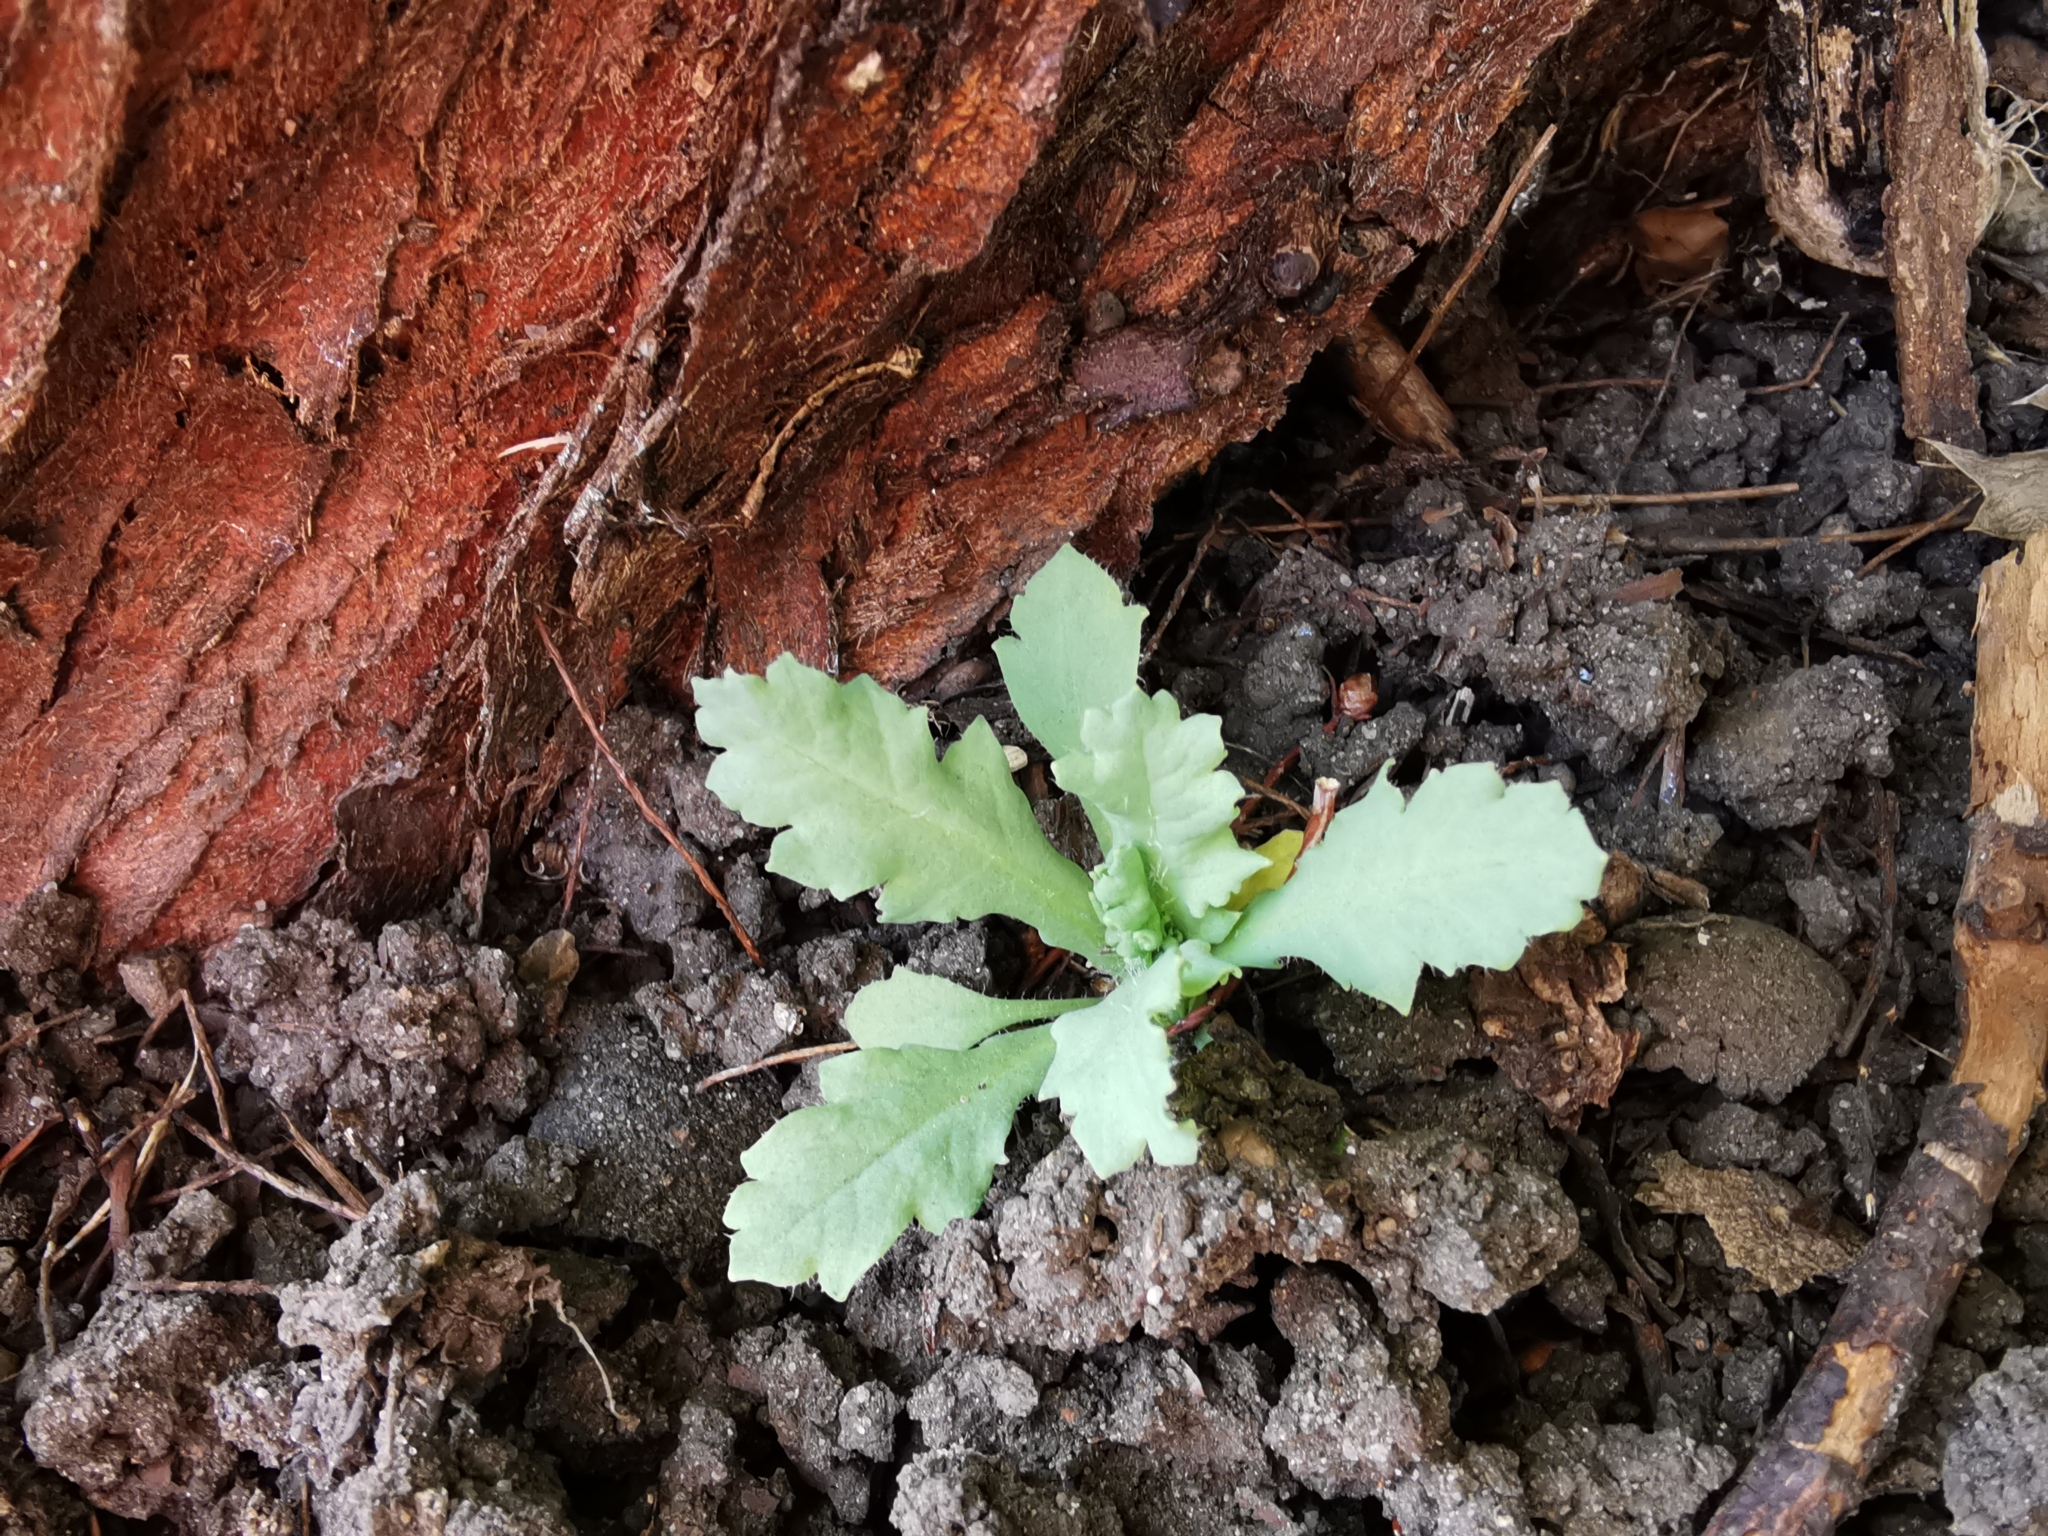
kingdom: Plantae
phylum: Tracheophyta
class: Magnoliopsida
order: Ranunculales
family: Papaveraceae
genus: Papaver
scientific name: Papaver somniferum
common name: Opium poppy
